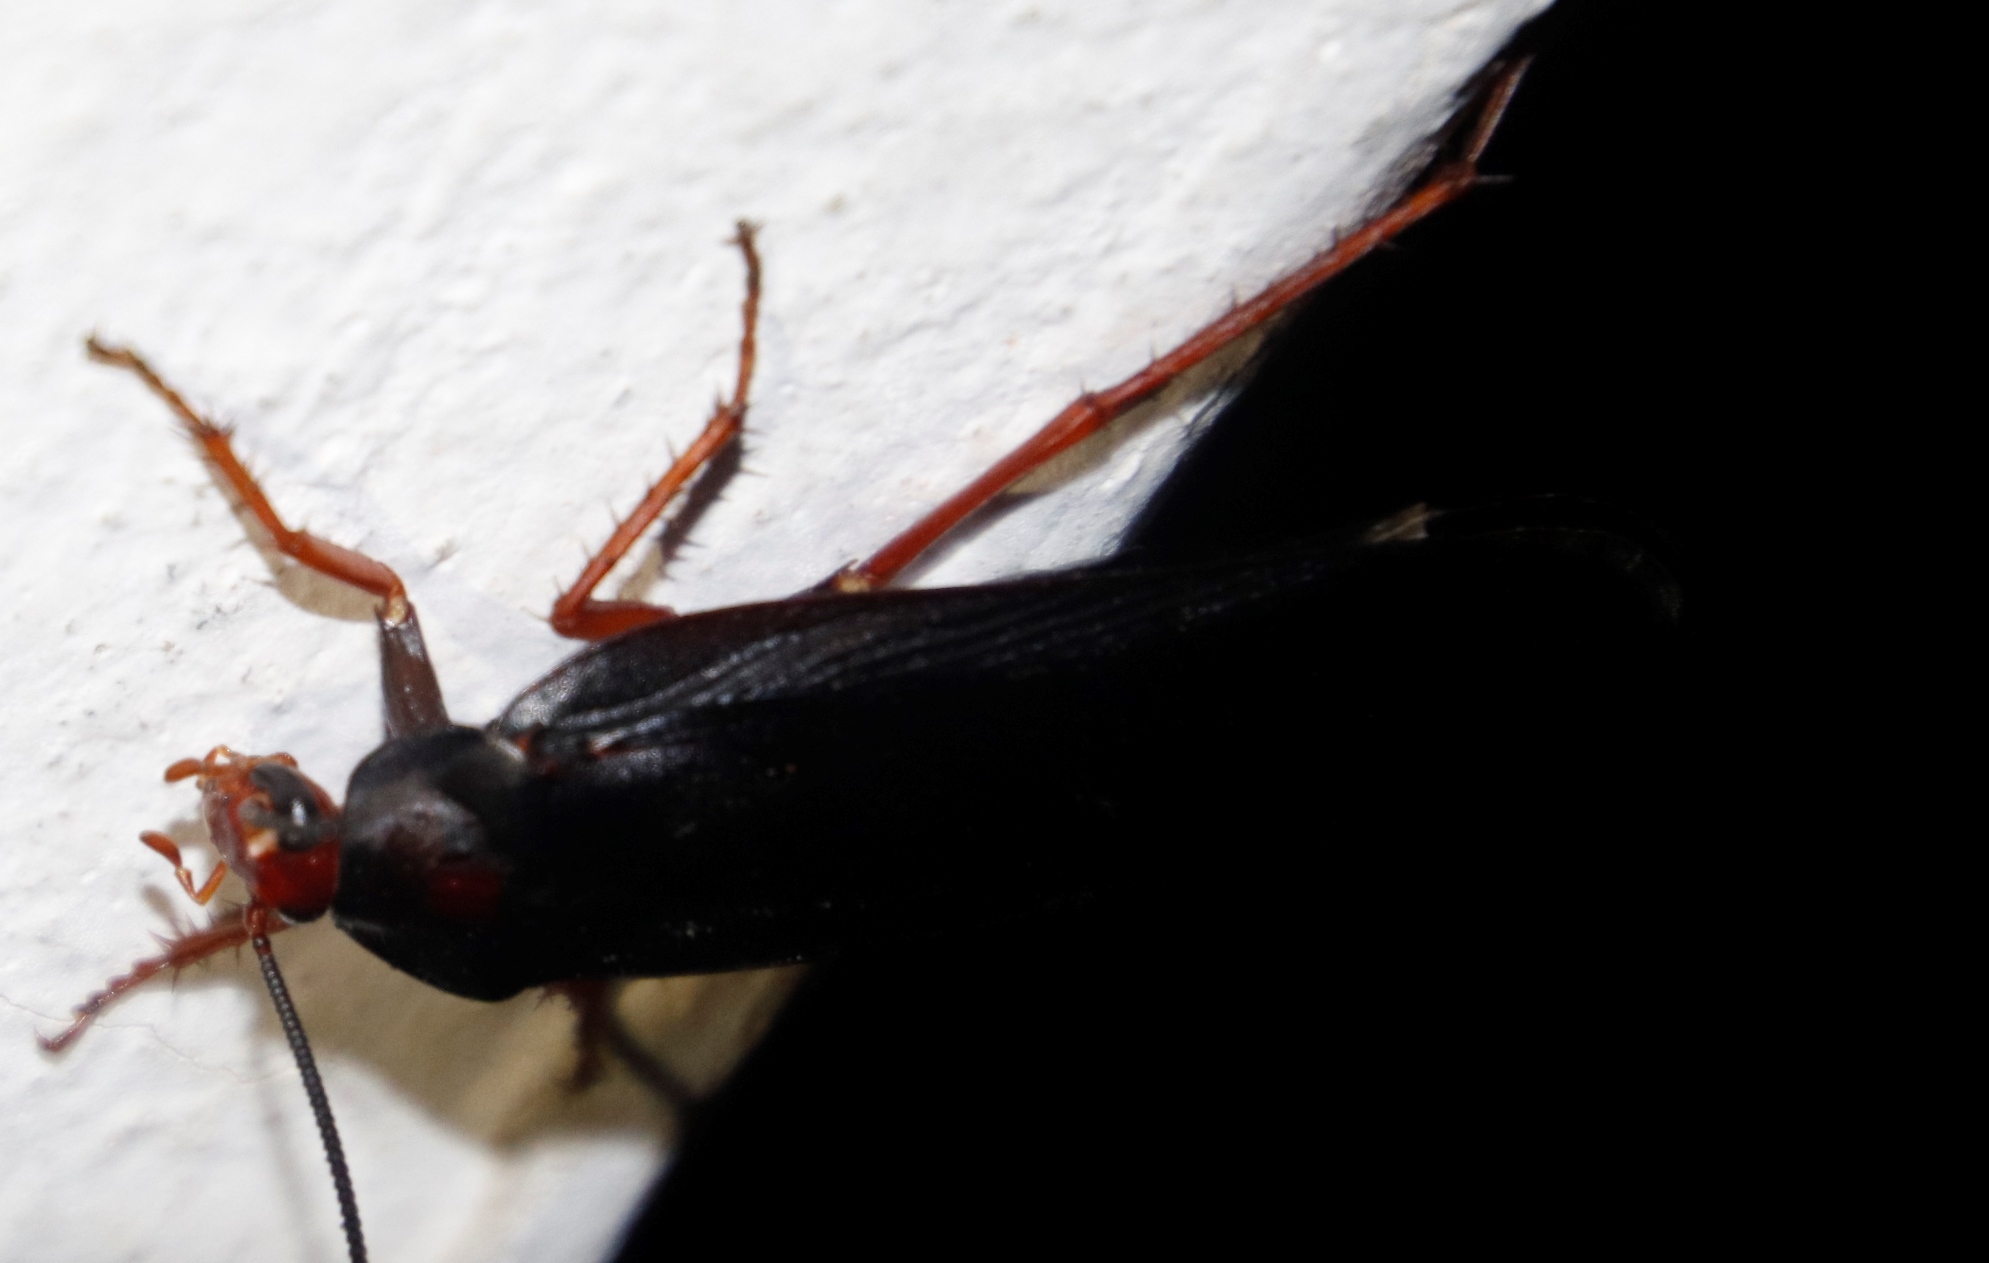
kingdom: Animalia
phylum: Arthropoda
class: Insecta
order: Blattodea
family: Blattidae
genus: Deropeltis
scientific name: Deropeltis erythrocephala
